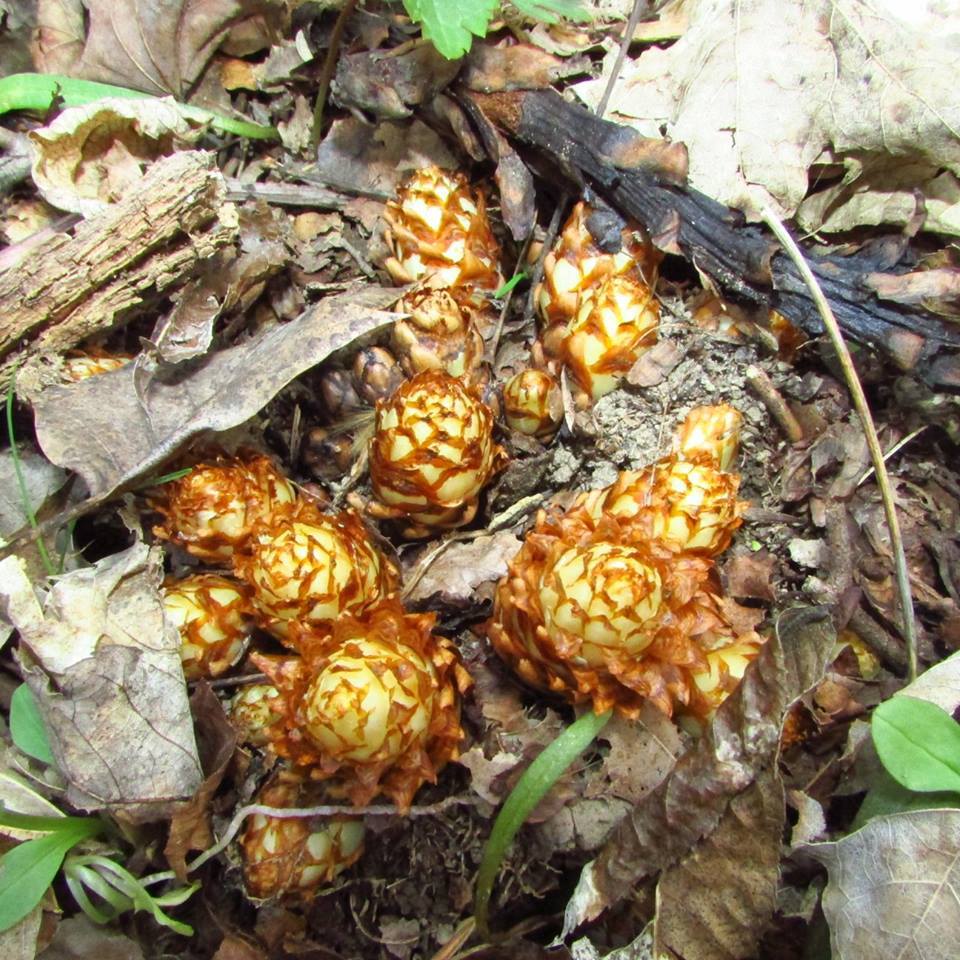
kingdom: Plantae
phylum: Tracheophyta
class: Magnoliopsida
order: Lamiales
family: Orobanchaceae
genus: Conopholis
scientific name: Conopholis americana
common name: American cancer-root
